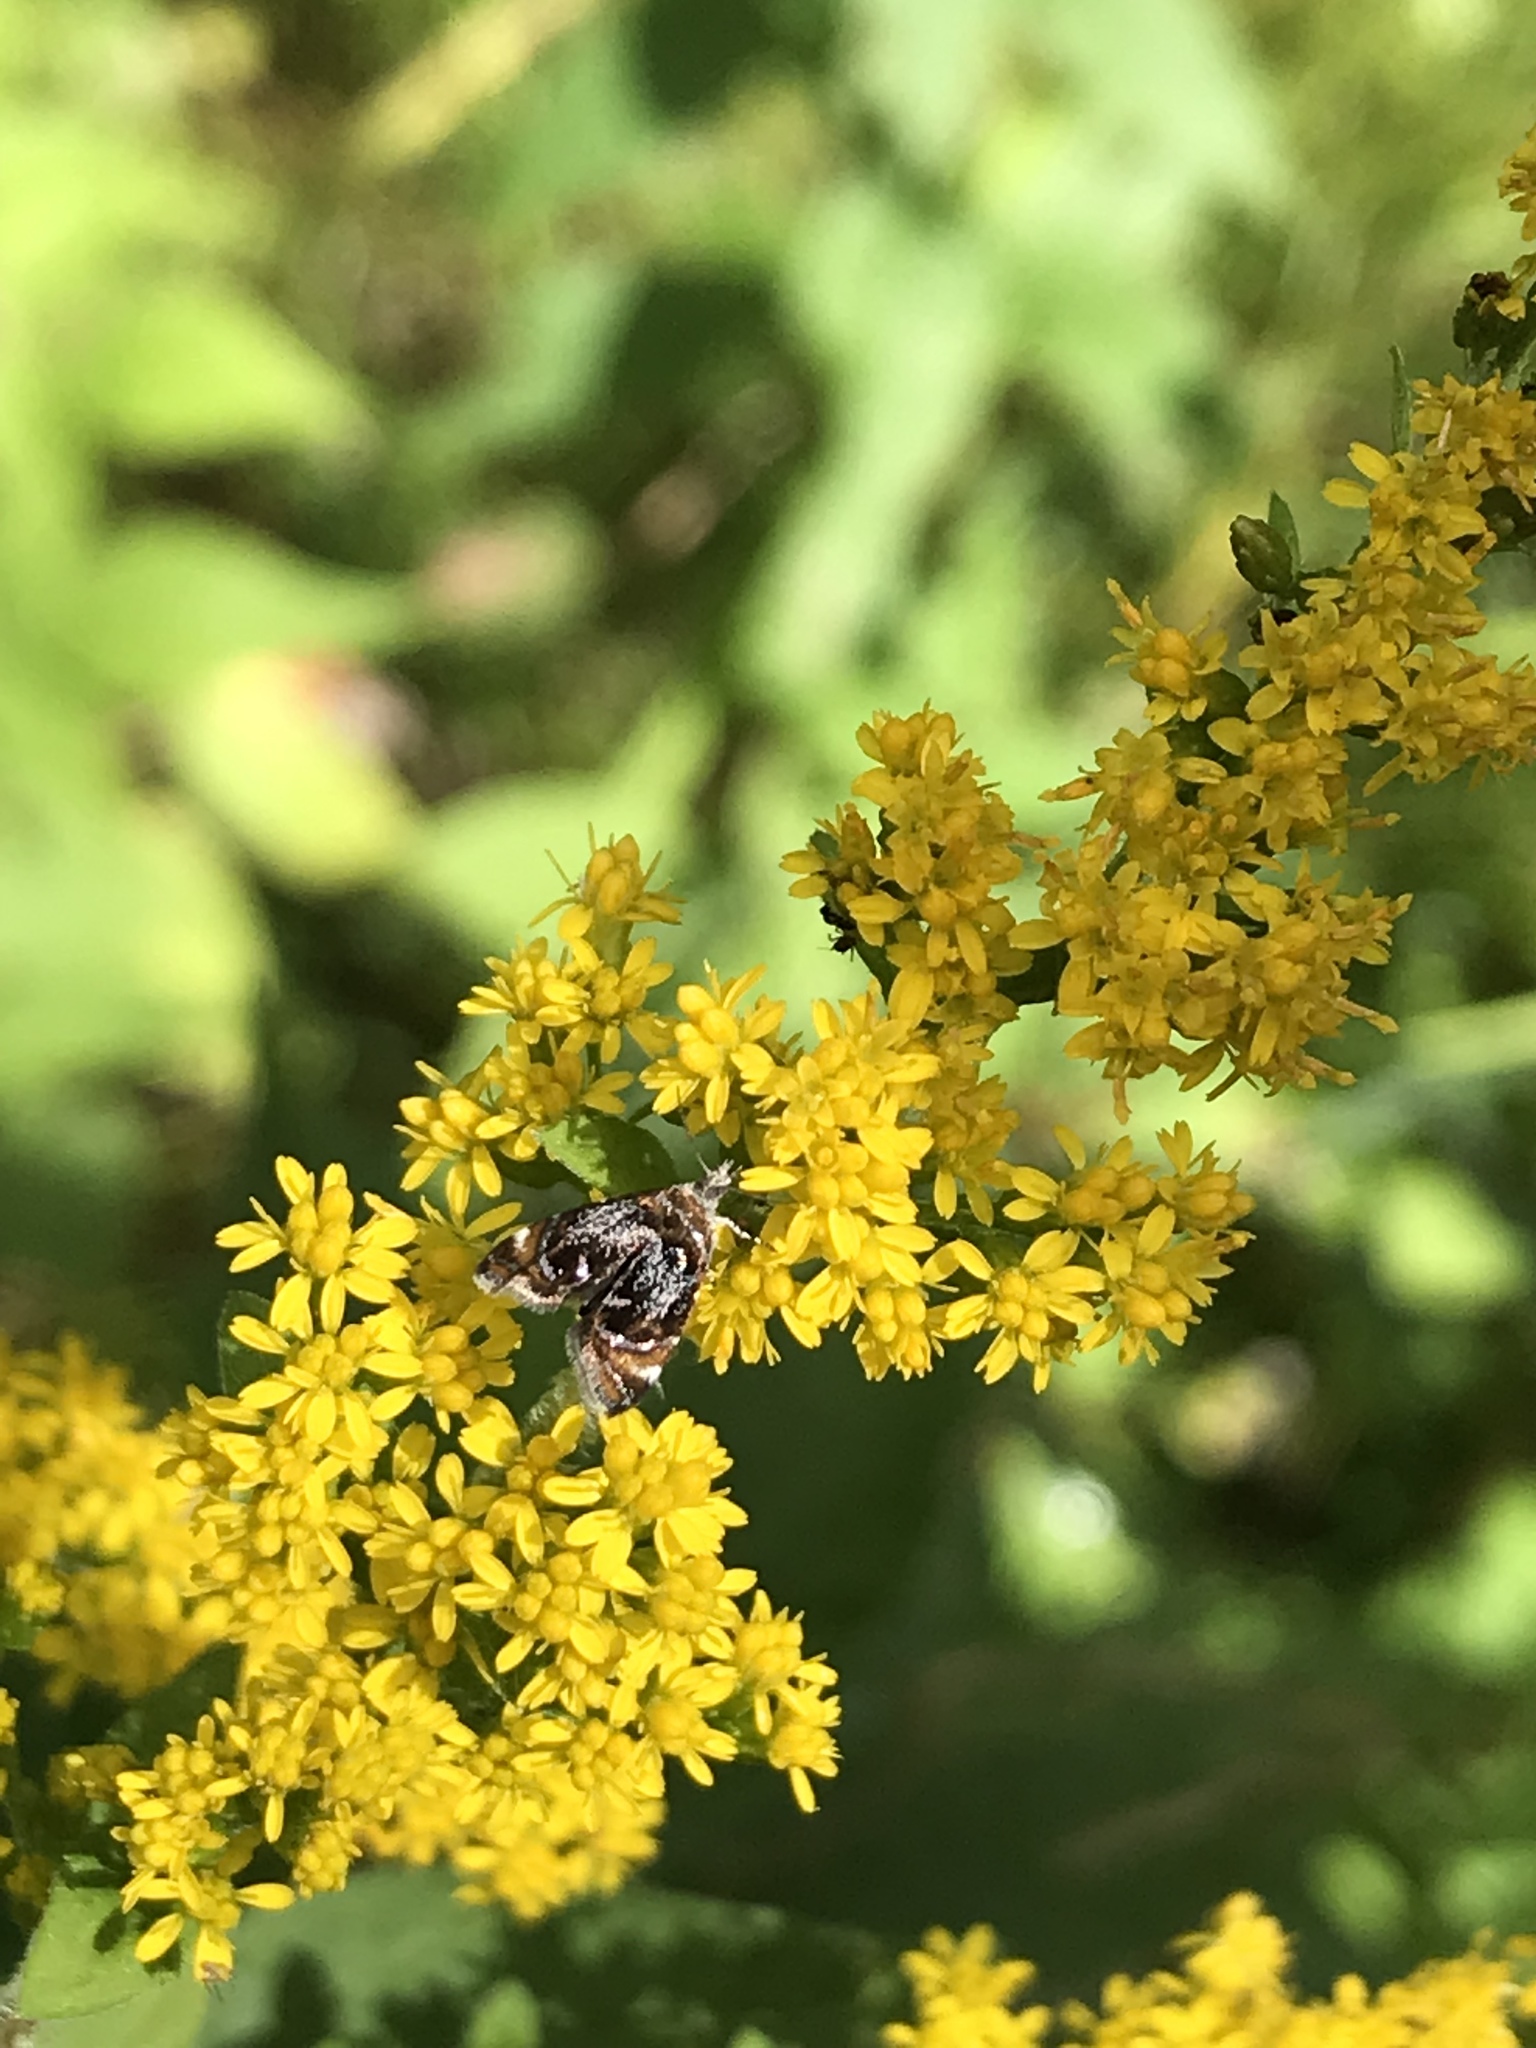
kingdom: Animalia
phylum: Arthropoda
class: Insecta
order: Lepidoptera
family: Choreutidae
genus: Prochoreutis
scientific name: Prochoreutis inflatella
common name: Skullcap skeletonizer moth
